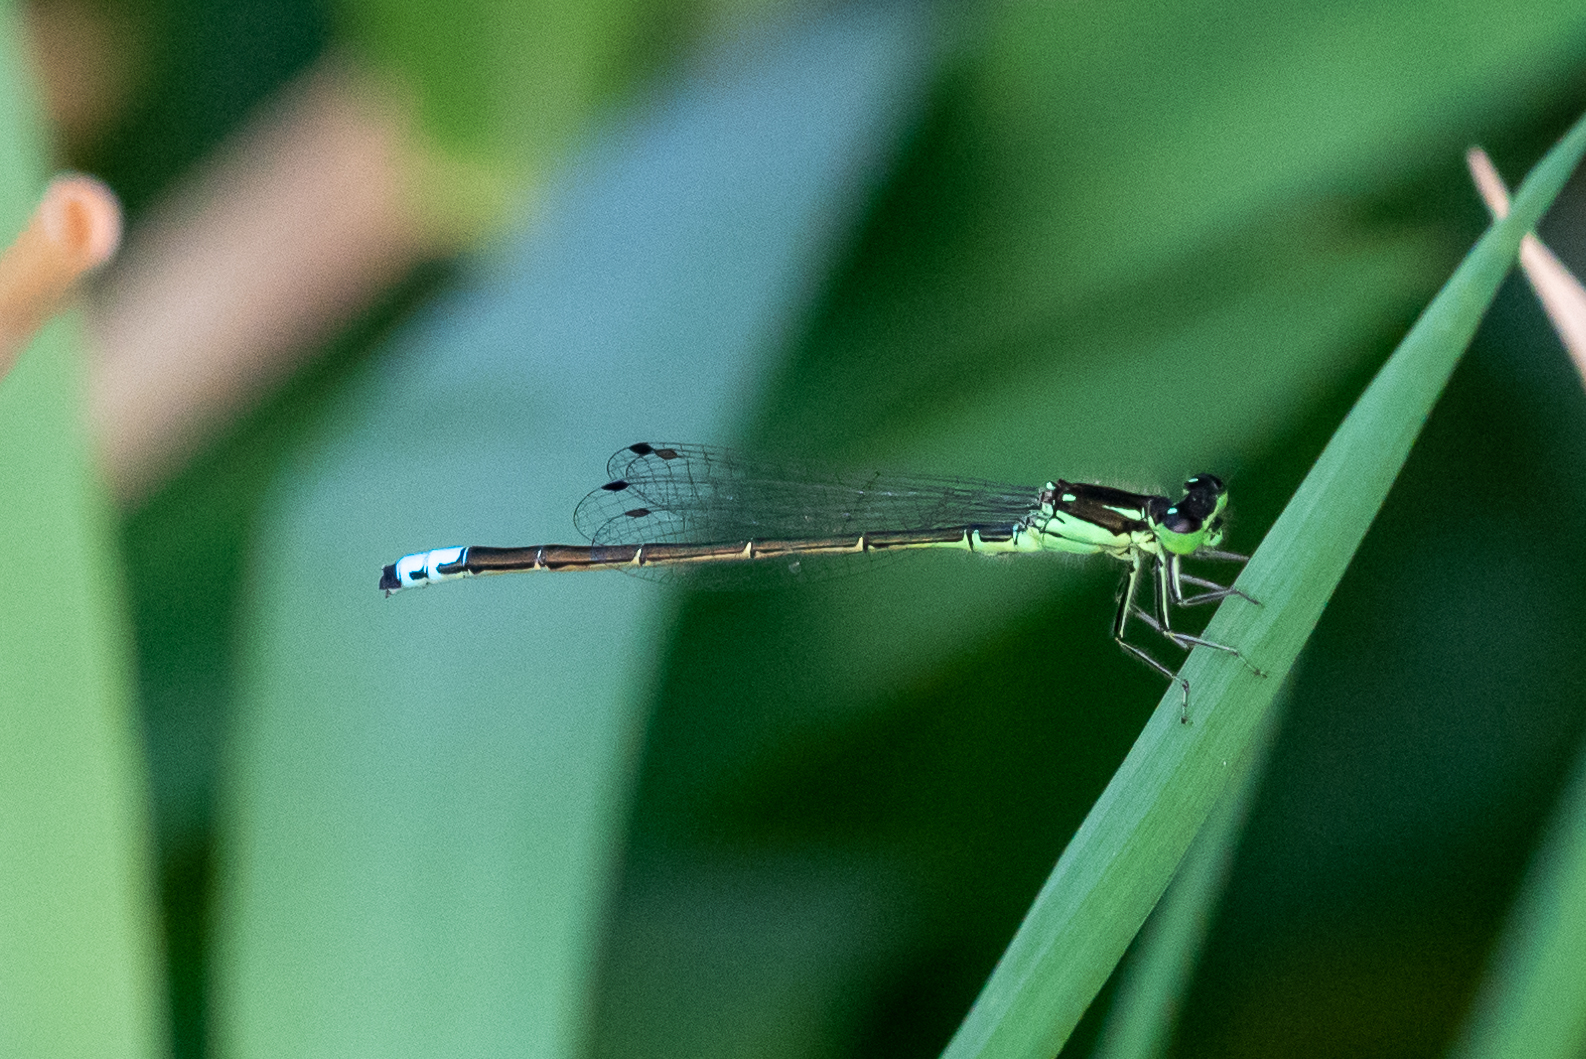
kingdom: Animalia
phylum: Arthropoda
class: Insecta
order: Odonata
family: Coenagrionidae
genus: Ischnura
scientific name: Ischnura verticalis
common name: Eastern forktail
